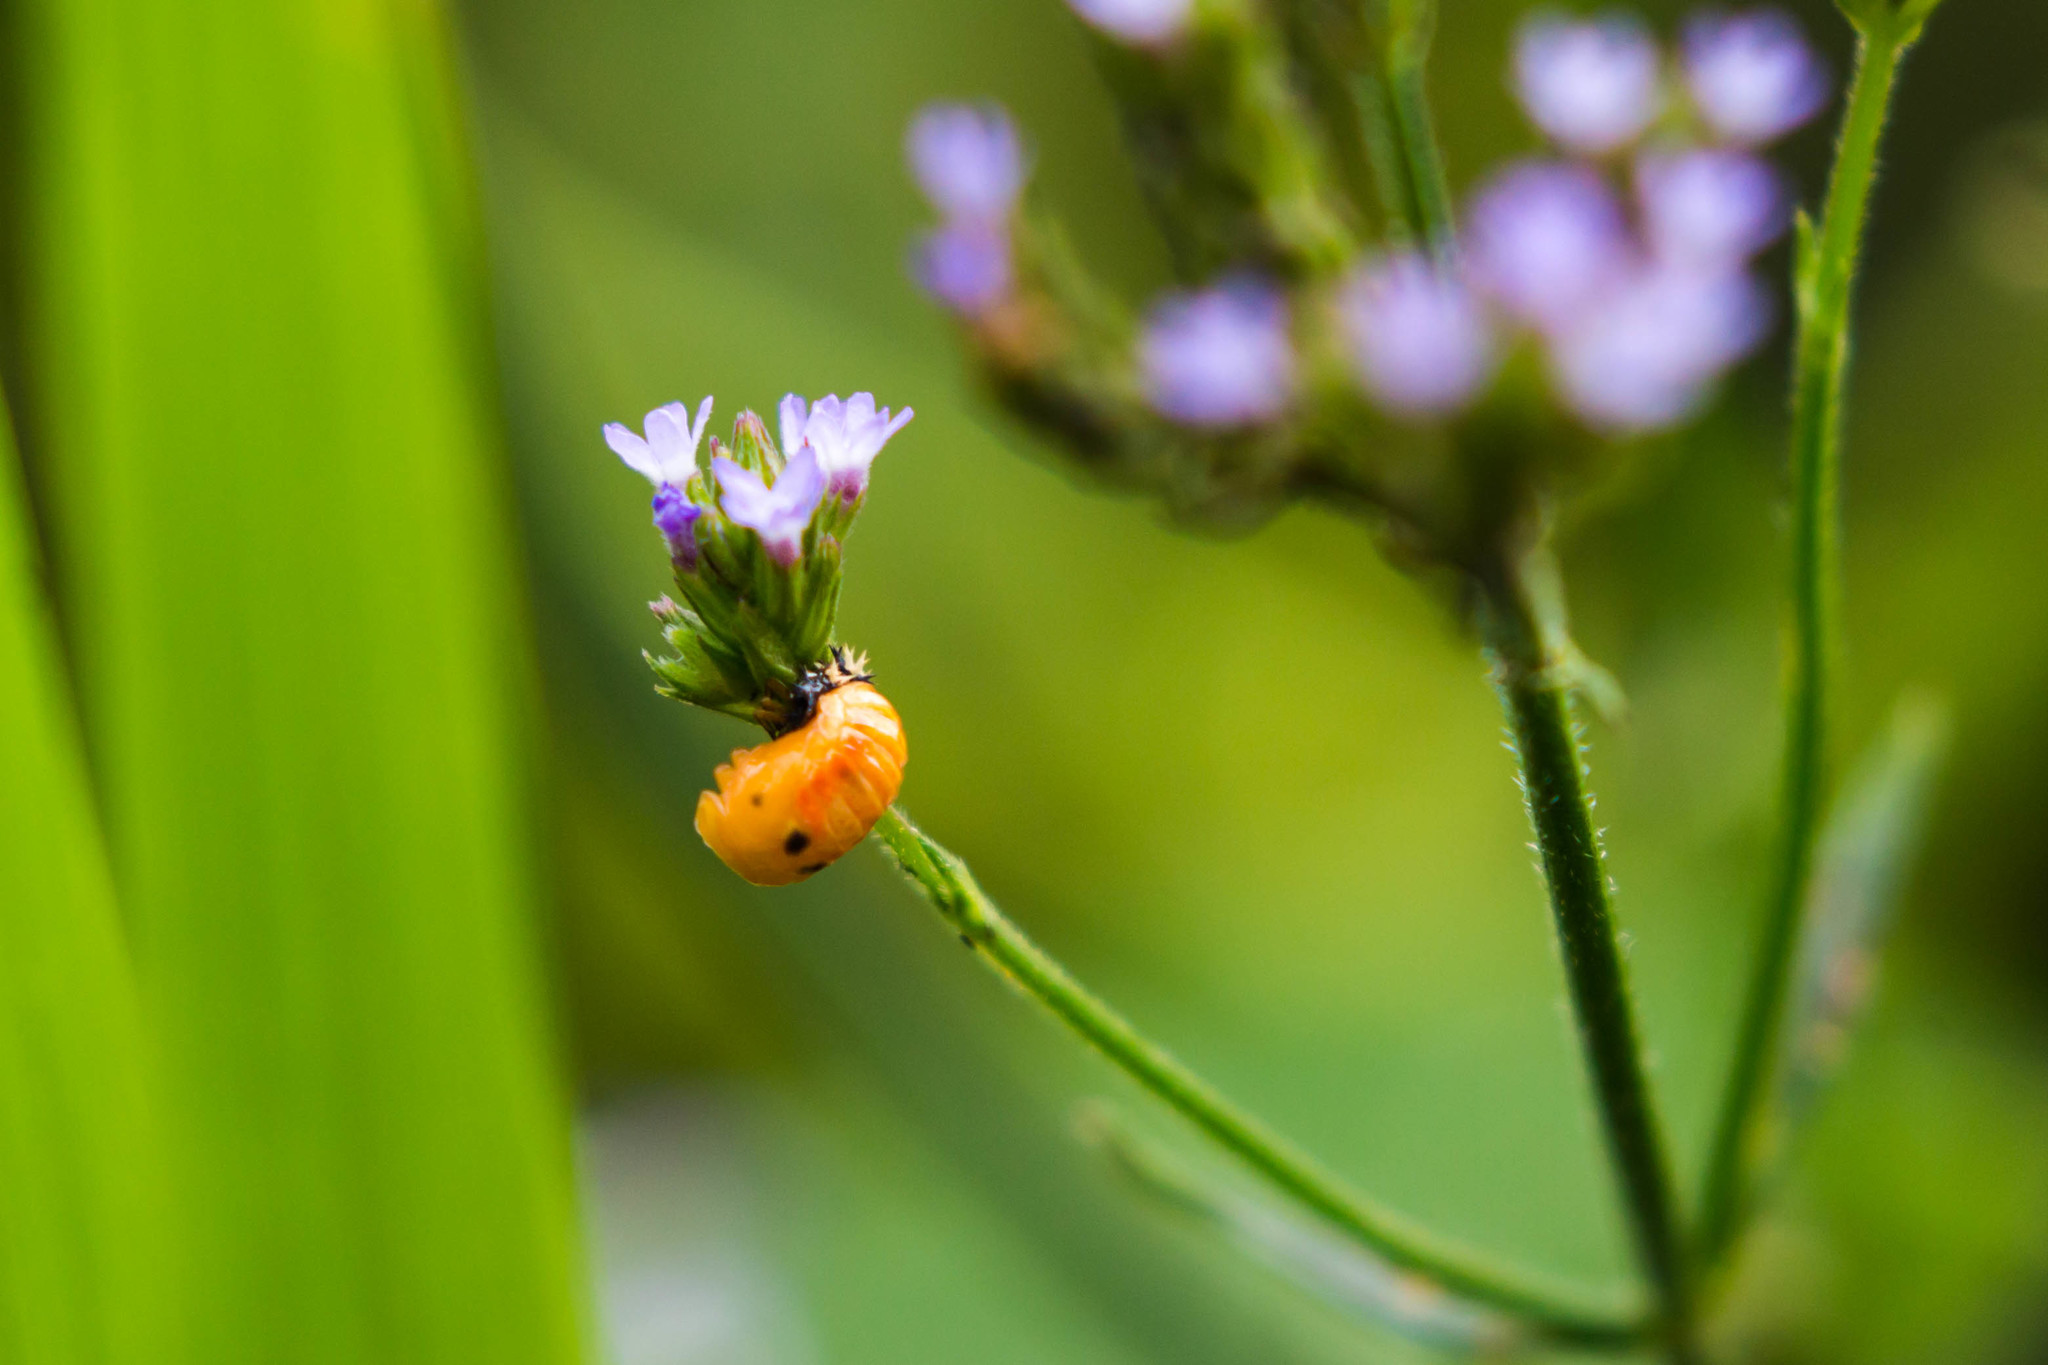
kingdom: Animalia
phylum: Arthropoda
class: Insecta
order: Coleoptera
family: Coccinellidae
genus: Harmonia
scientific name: Harmonia axyridis
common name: Harlequin ladybird
